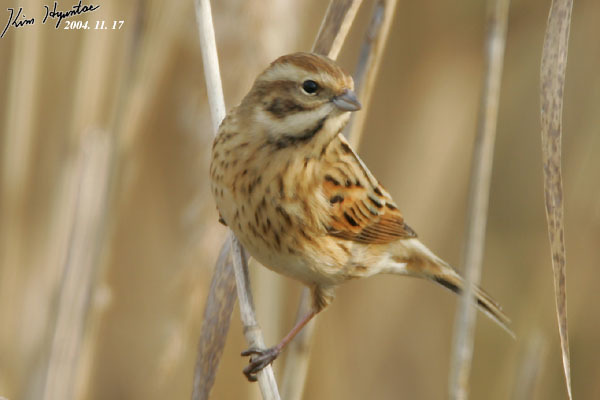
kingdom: Animalia
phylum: Chordata
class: Aves
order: Passeriformes
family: Emberizidae
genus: Emberiza
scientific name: Emberiza schoeniclus
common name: Reed bunting
